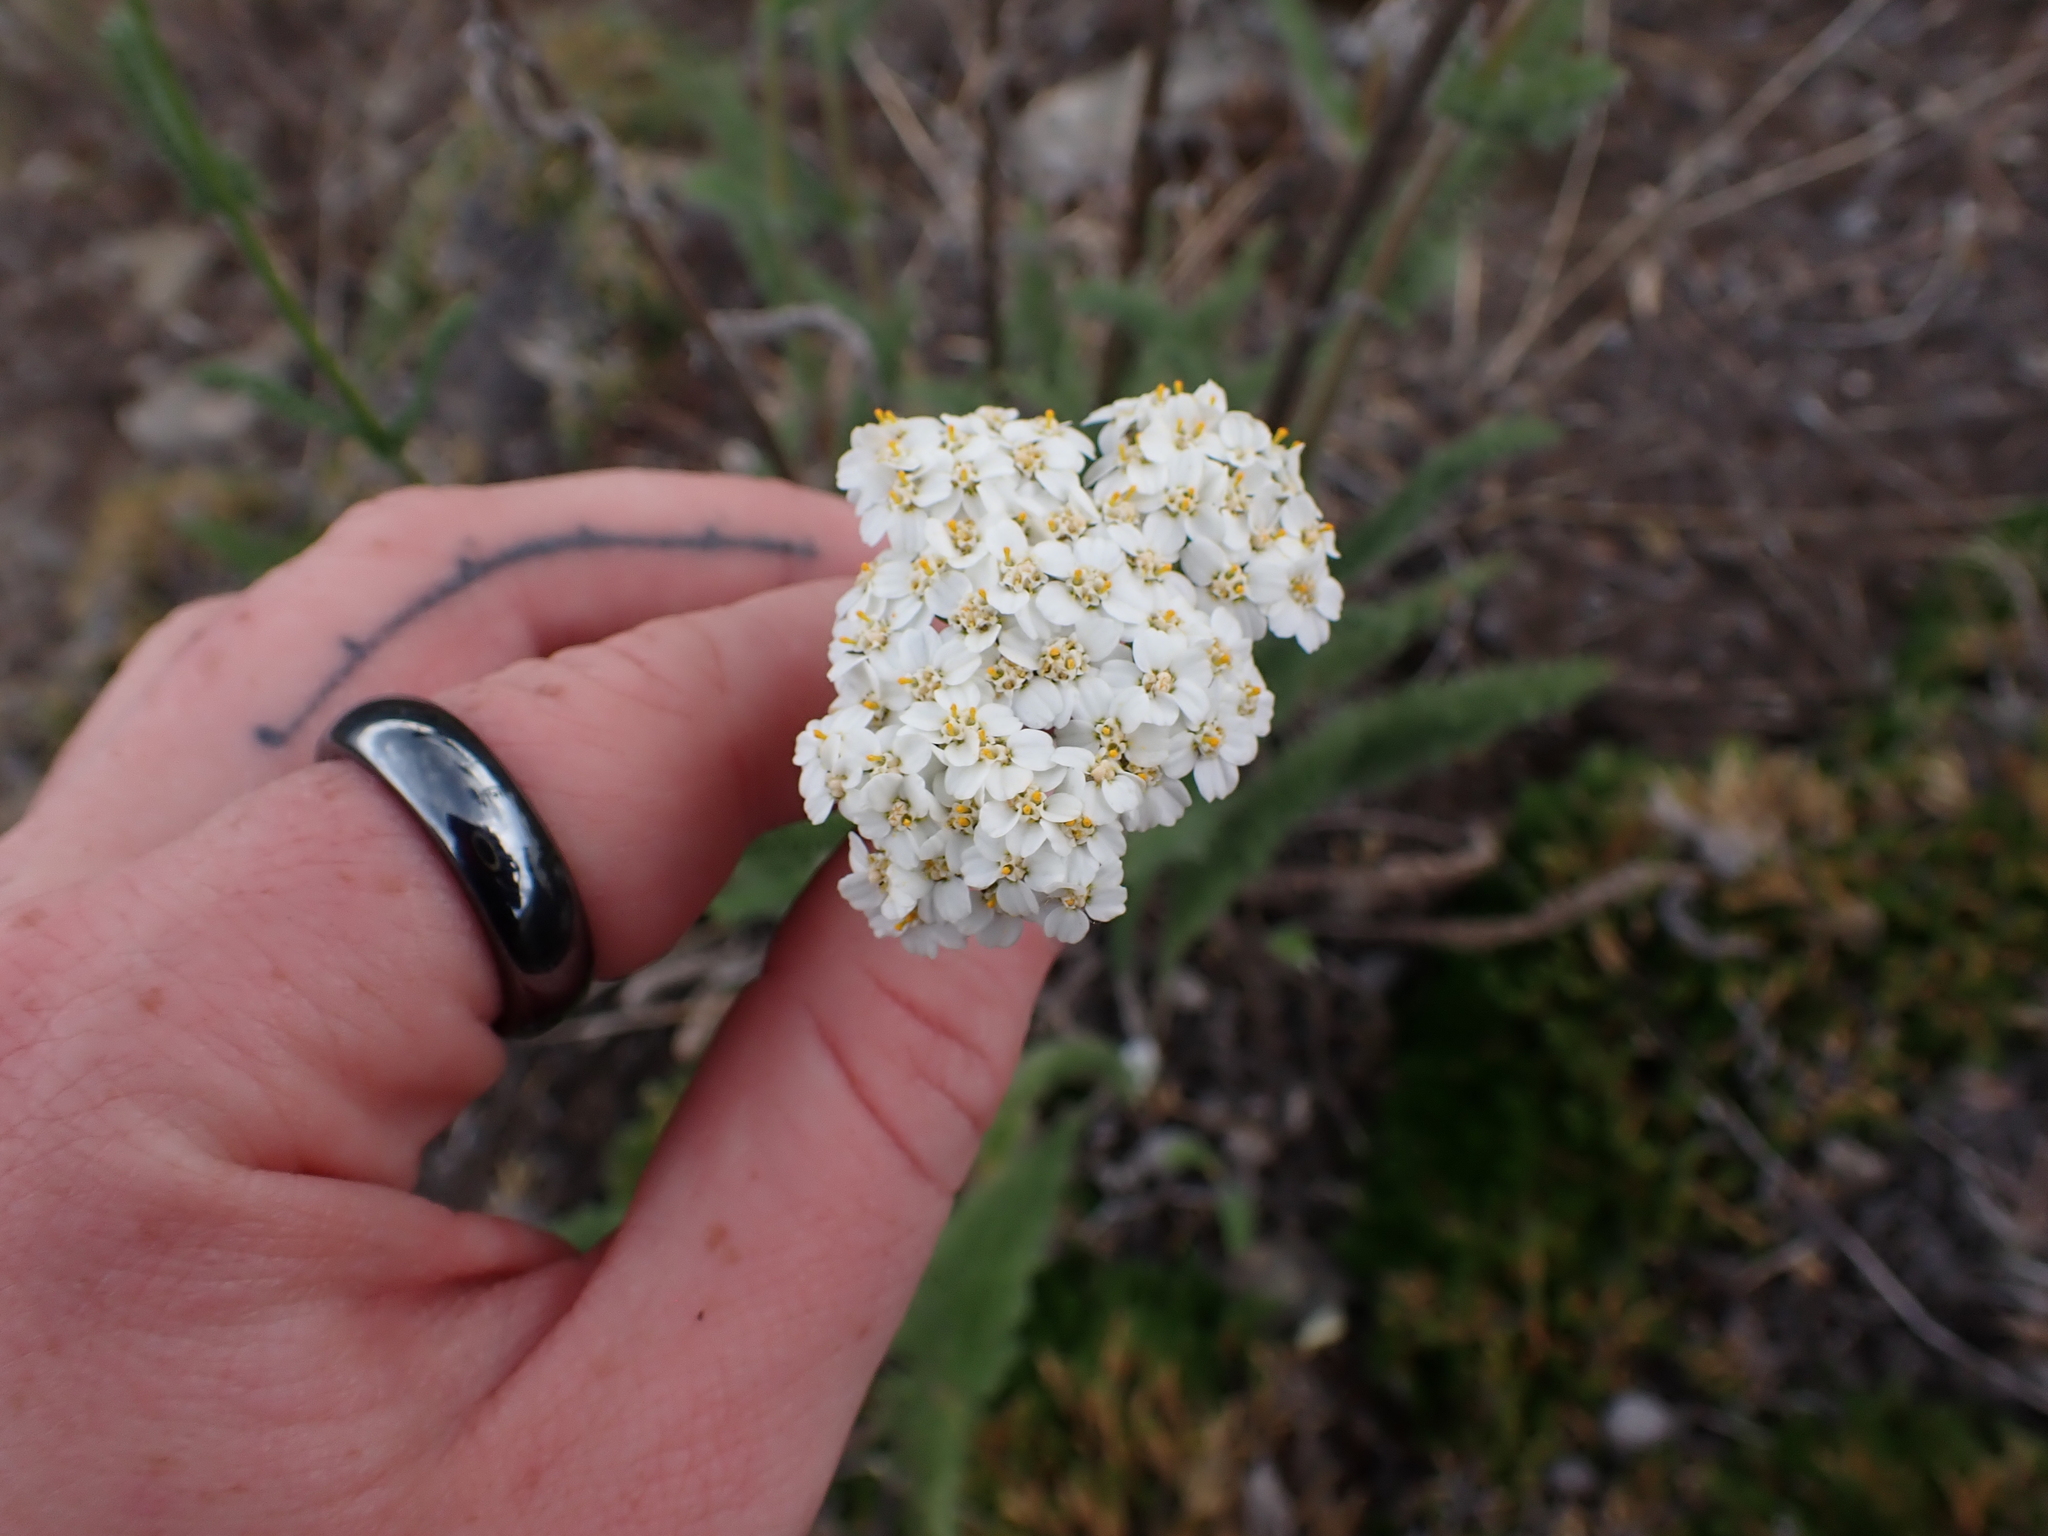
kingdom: Plantae
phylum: Tracheophyta
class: Magnoliopsida
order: Asterales
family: Asteraceae
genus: Achillea
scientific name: Achillea millefolium
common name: Yarrow
